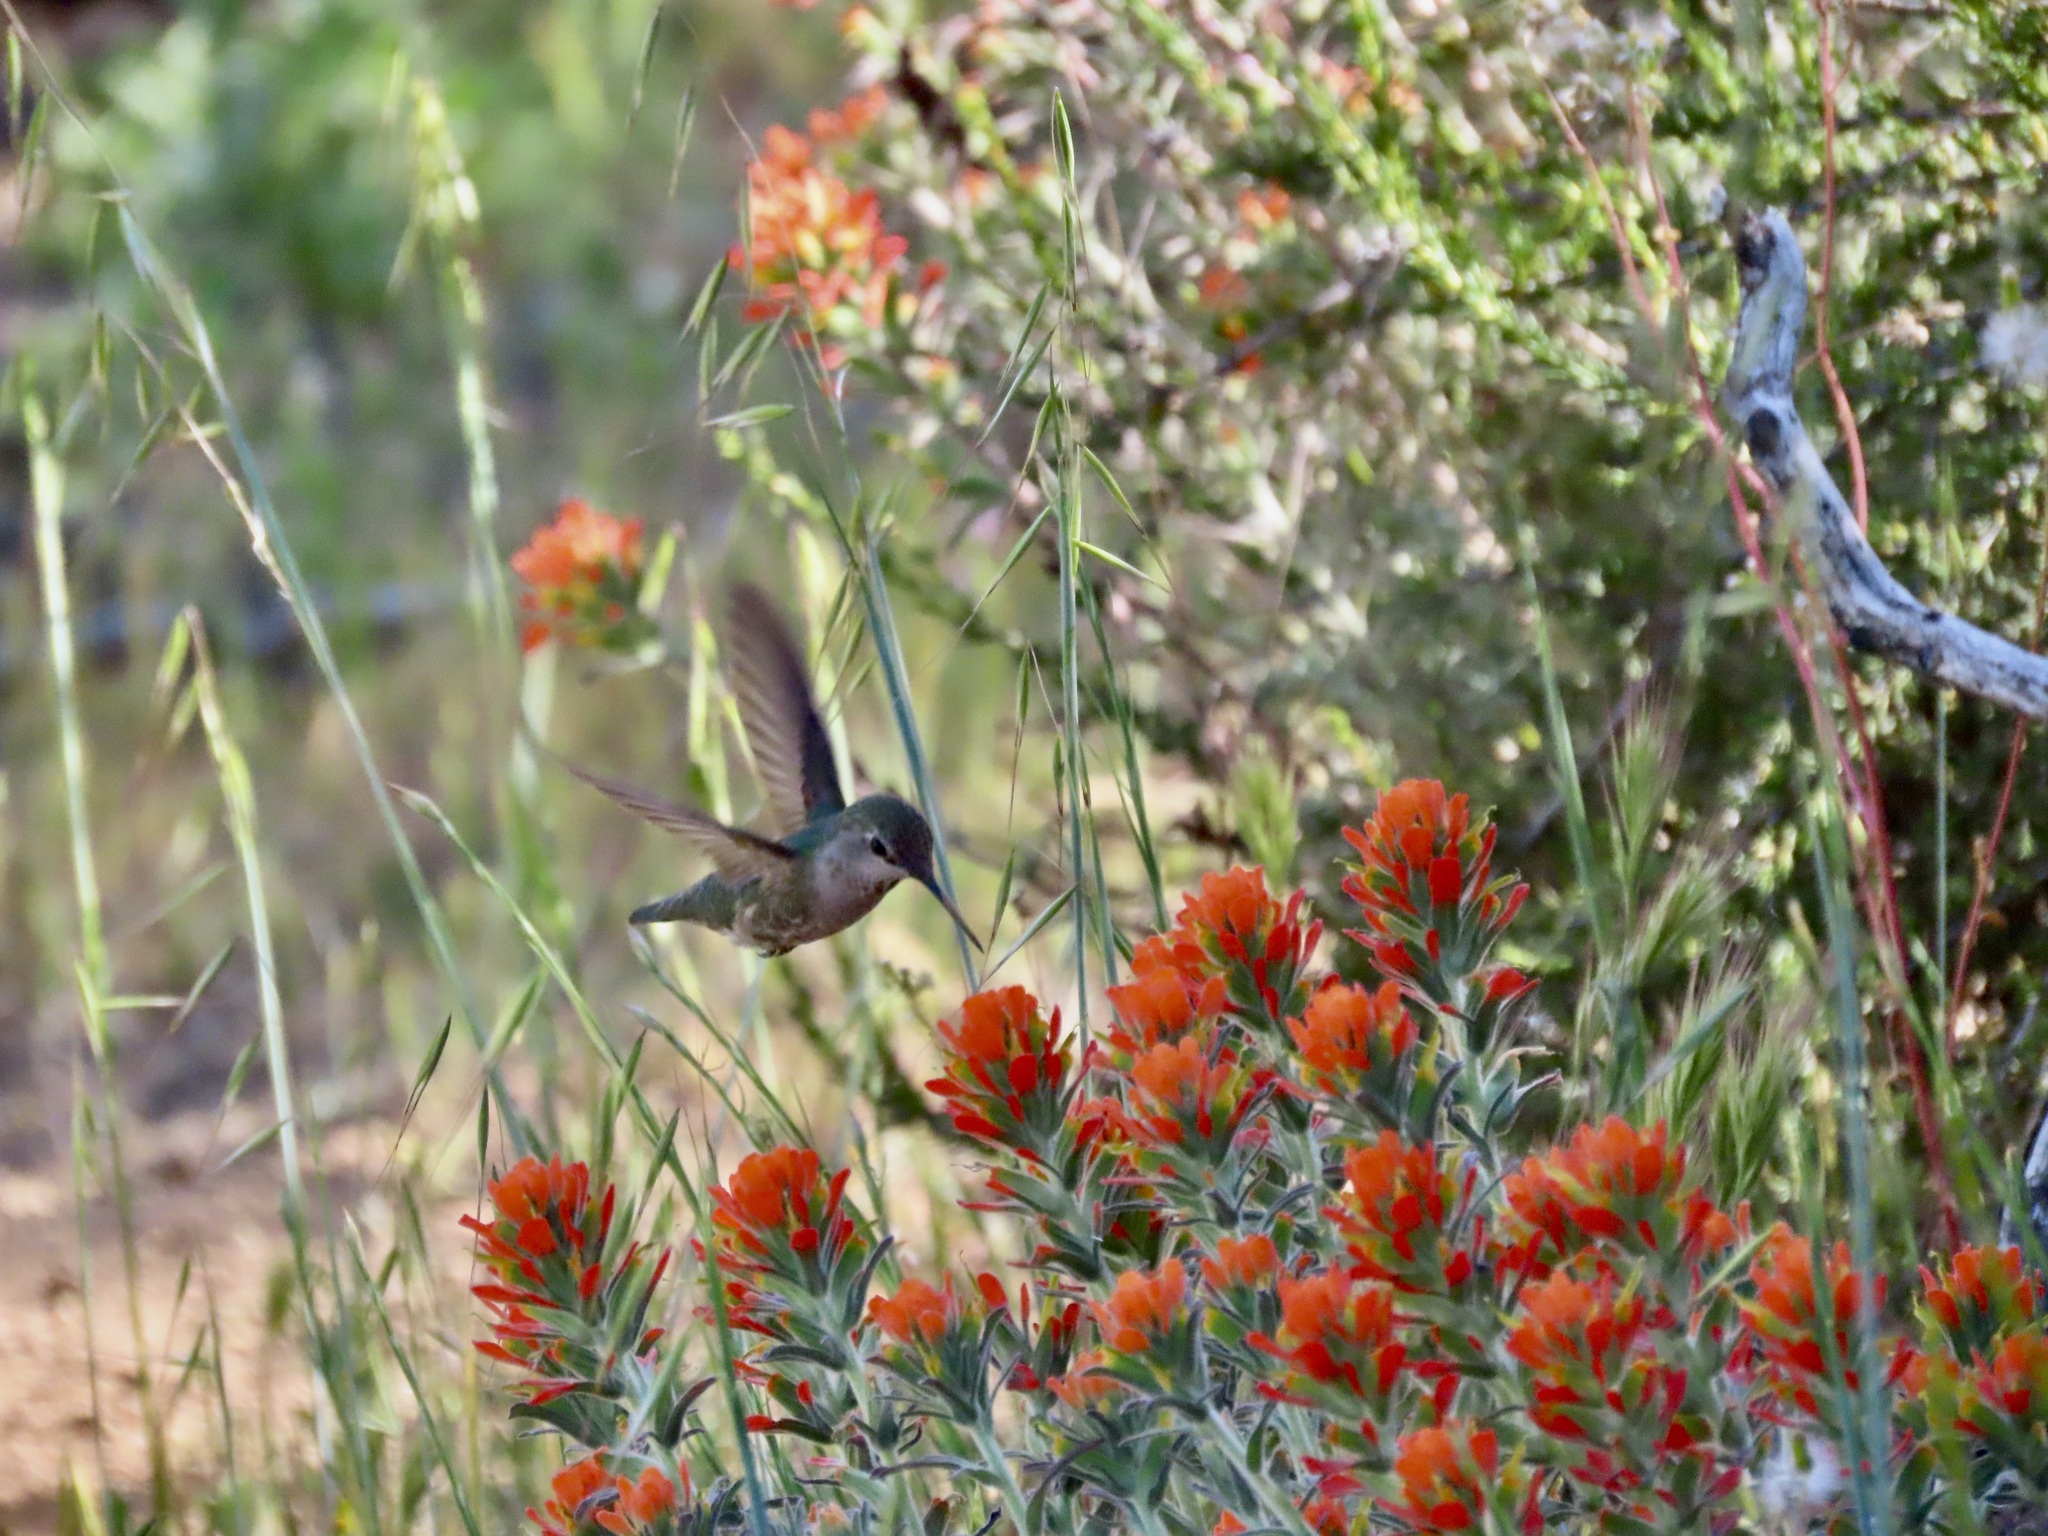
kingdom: Animalia
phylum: Chordata
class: Aves
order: Apodiformes
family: Trochilidae
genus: Calypte
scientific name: Calypte anna
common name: Anna's hummingbird
